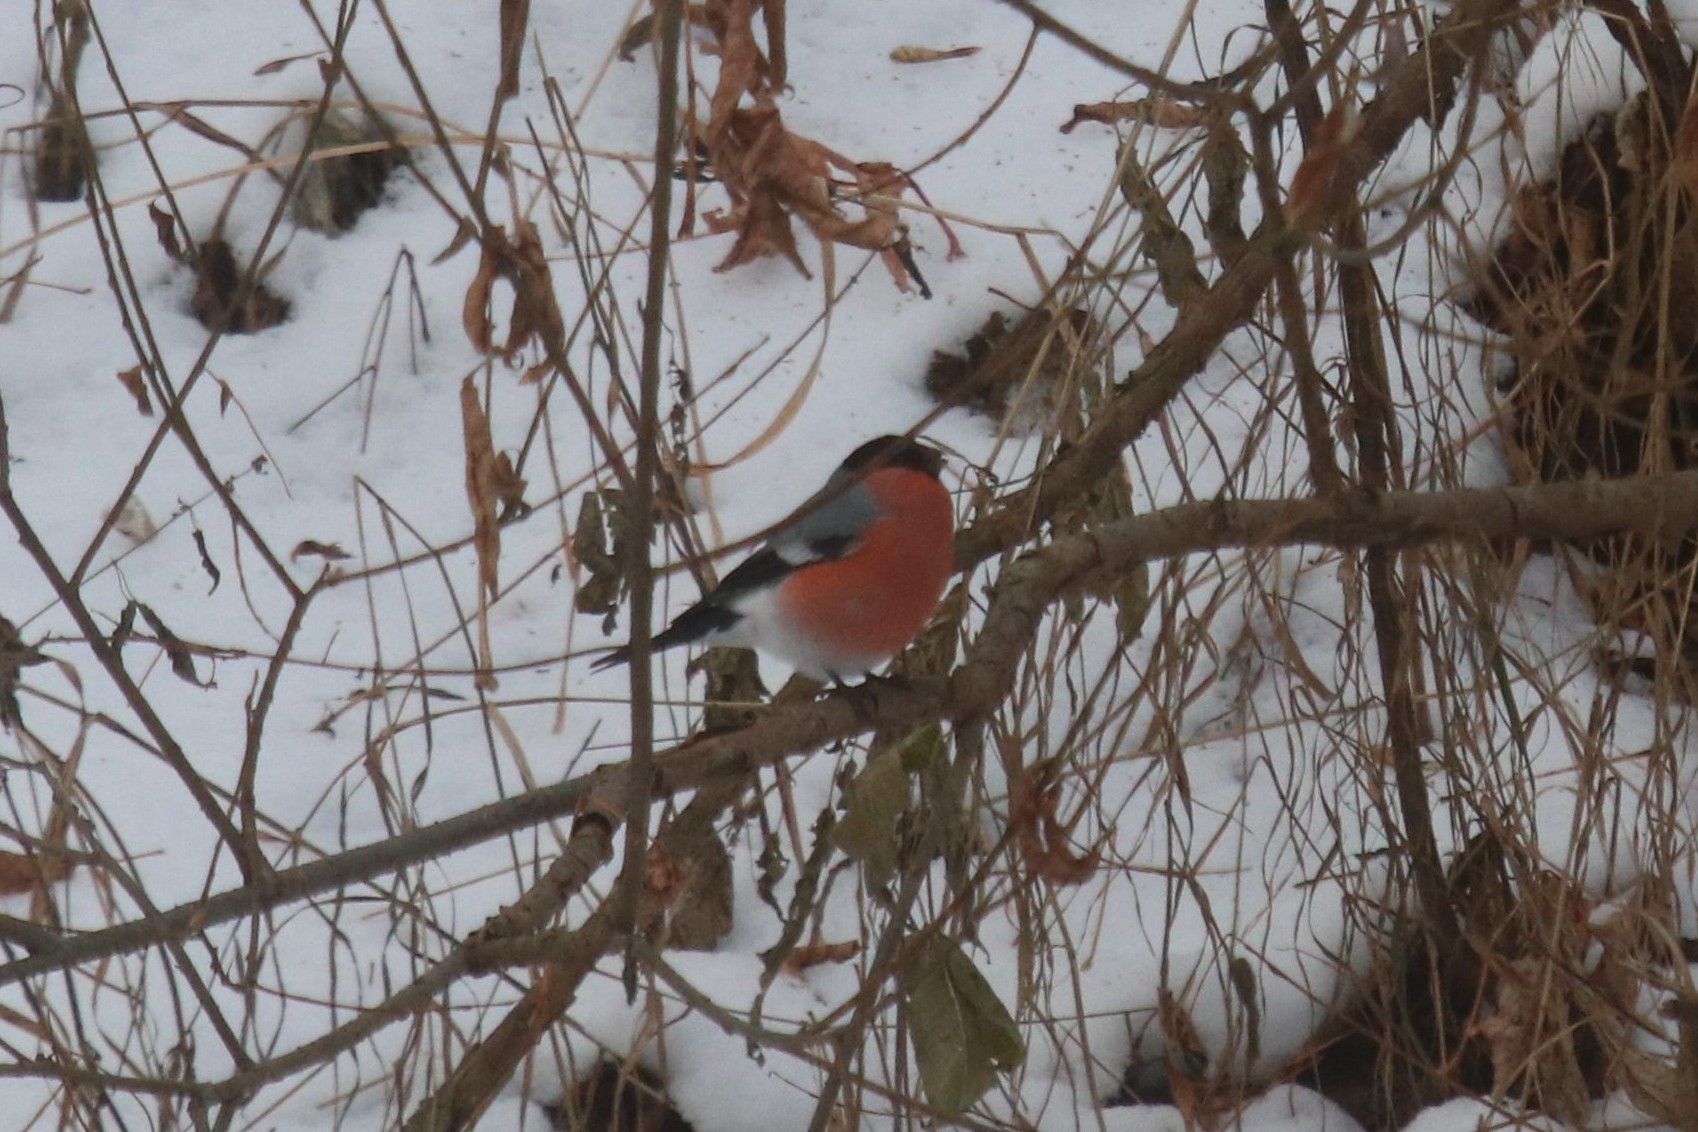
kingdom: Animalia
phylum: Chordata
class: Aves
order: Passeriformes
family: Fringillidae
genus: Pyrrhula
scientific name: Pyrrhula pyrrhula
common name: Eurasian bullfinch
